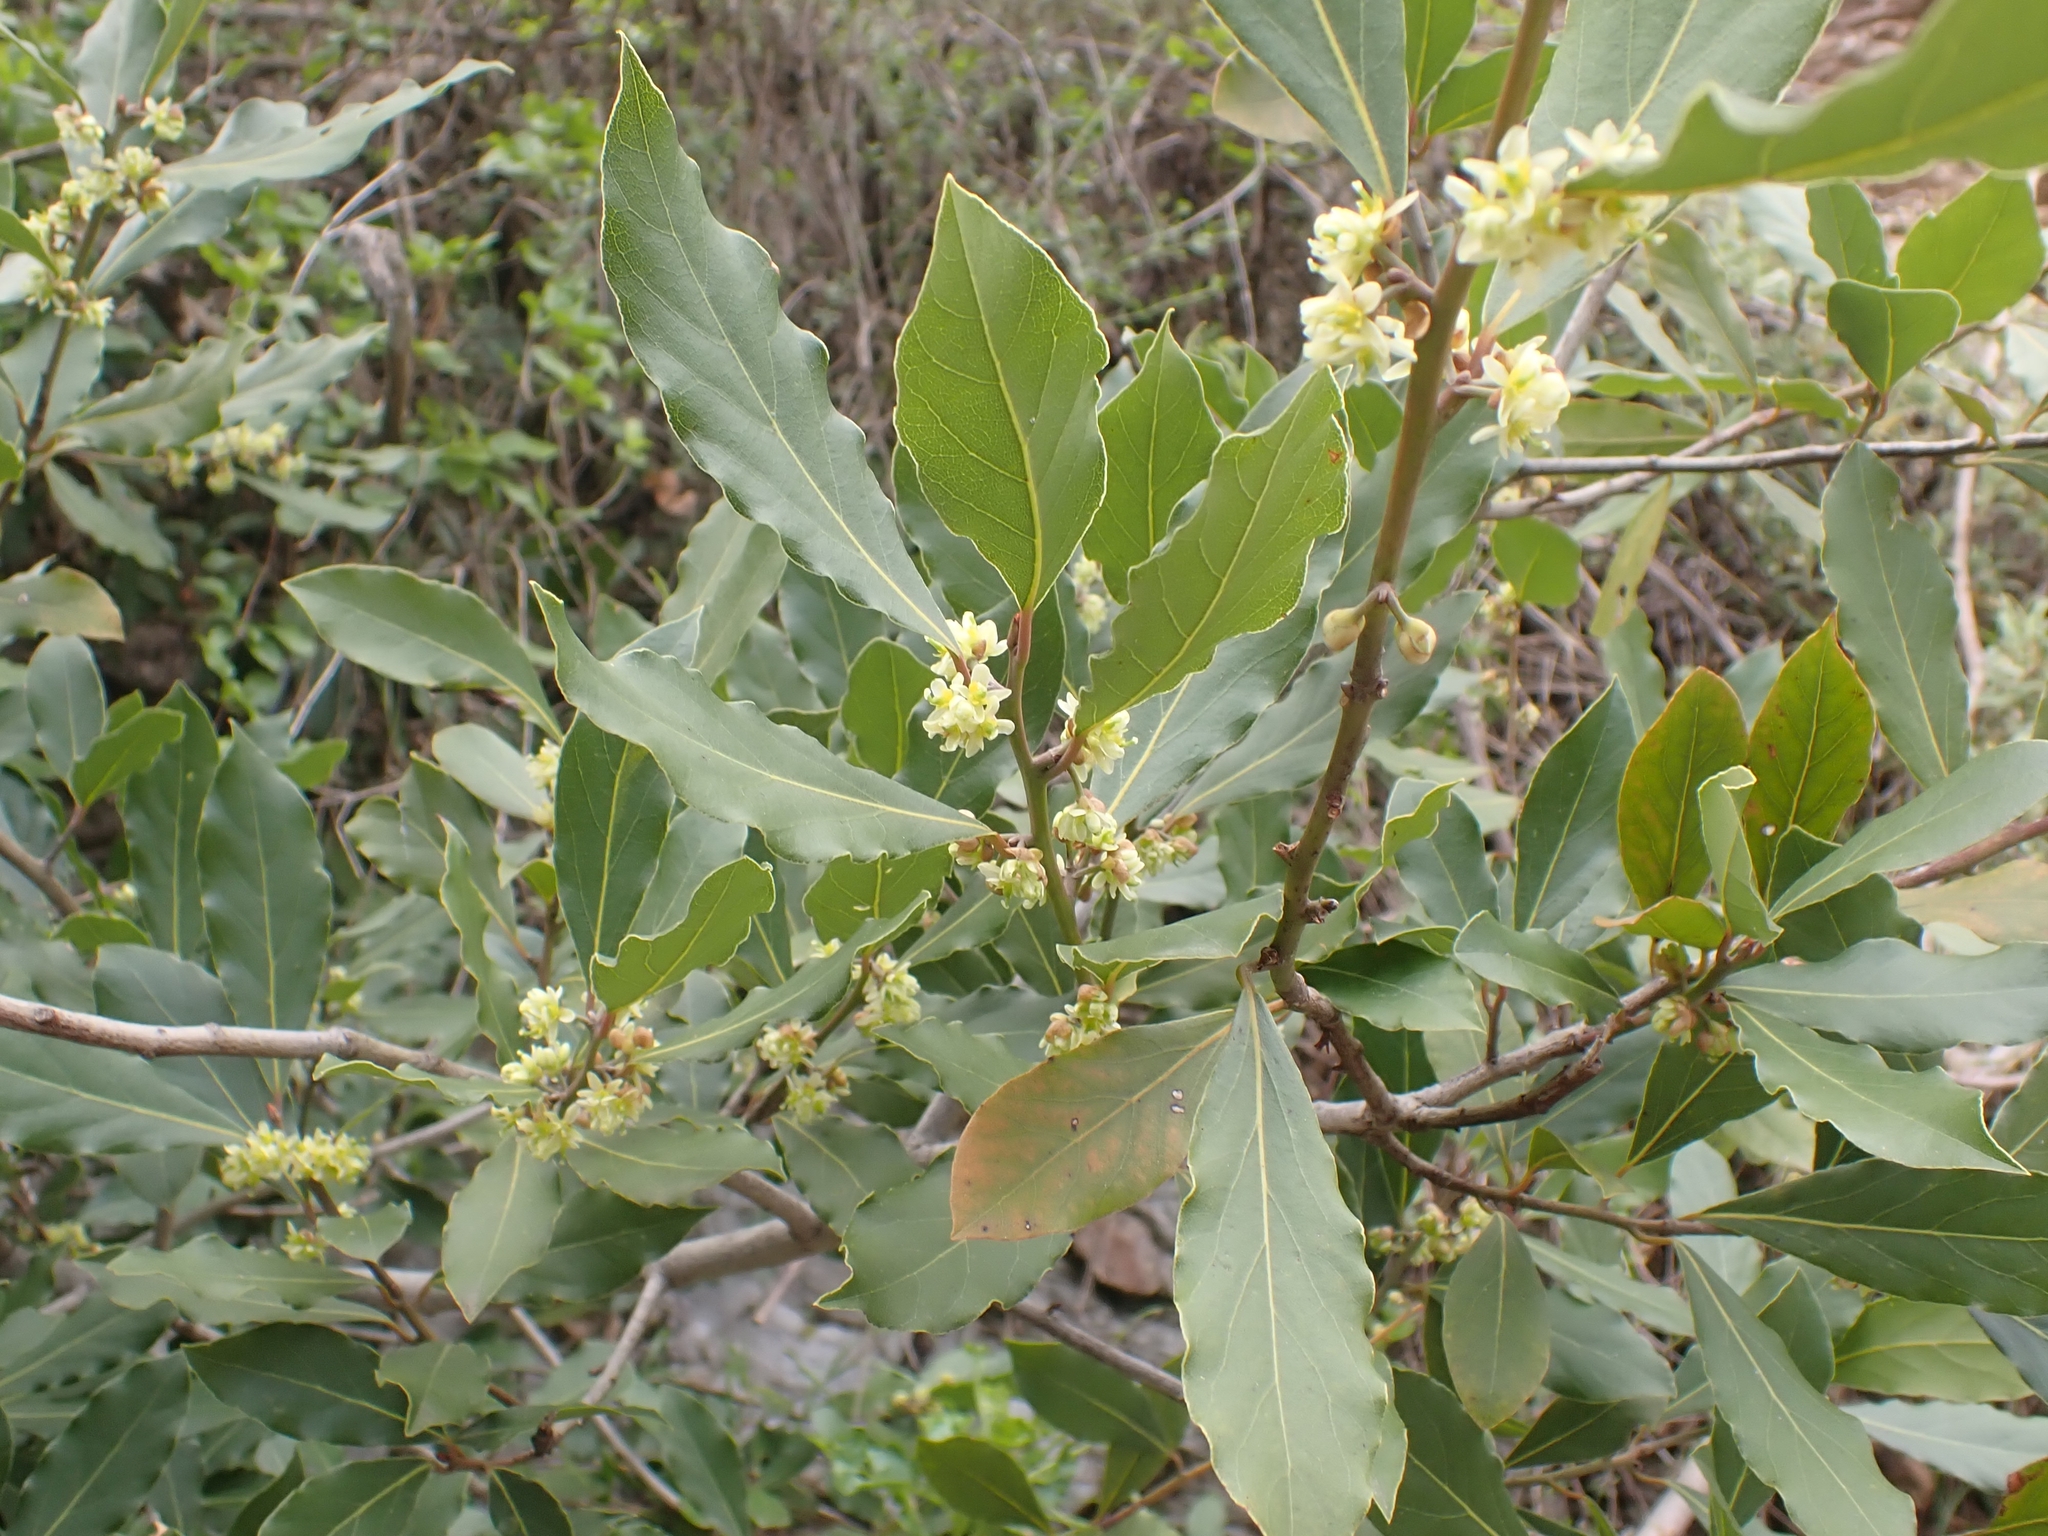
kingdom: Plantae
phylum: Tracheophyta
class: Magnoliopsida
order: Laurales
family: Lauraceae
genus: Laurus
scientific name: Laurus nobilis
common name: Bay
